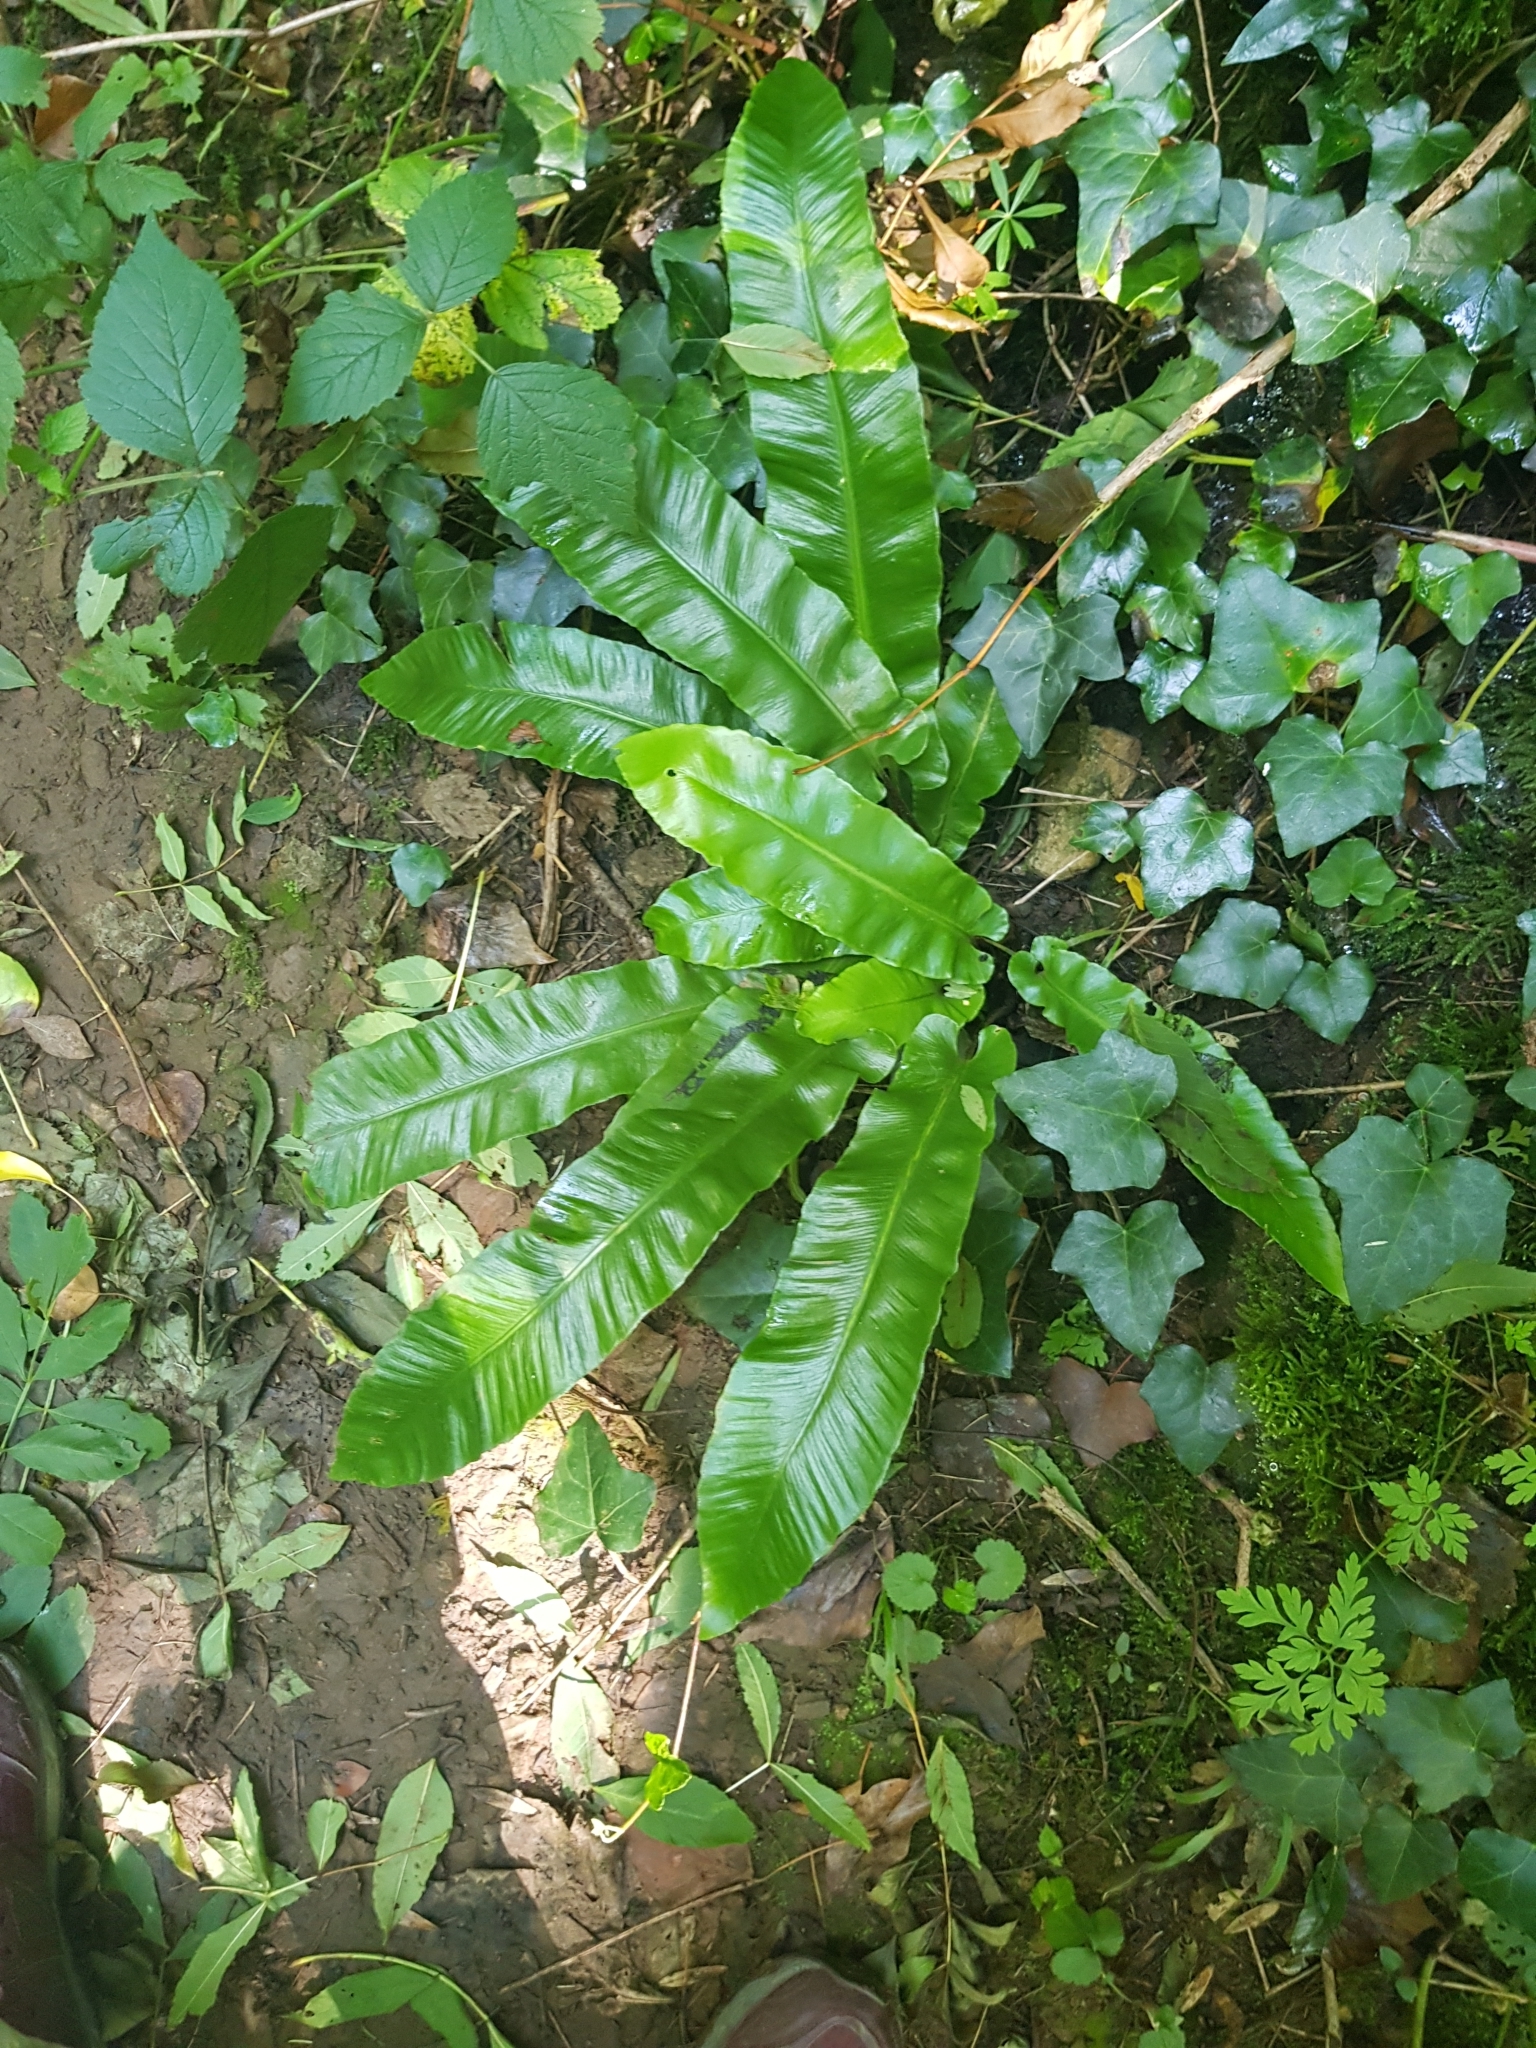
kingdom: Plantae
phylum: Tracheophyta
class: Polypodiopsida
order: Polypodiales
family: Aspleniaceae
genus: Asplenium
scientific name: Asplenium scolopendrium
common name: Hart's-tongue fern
